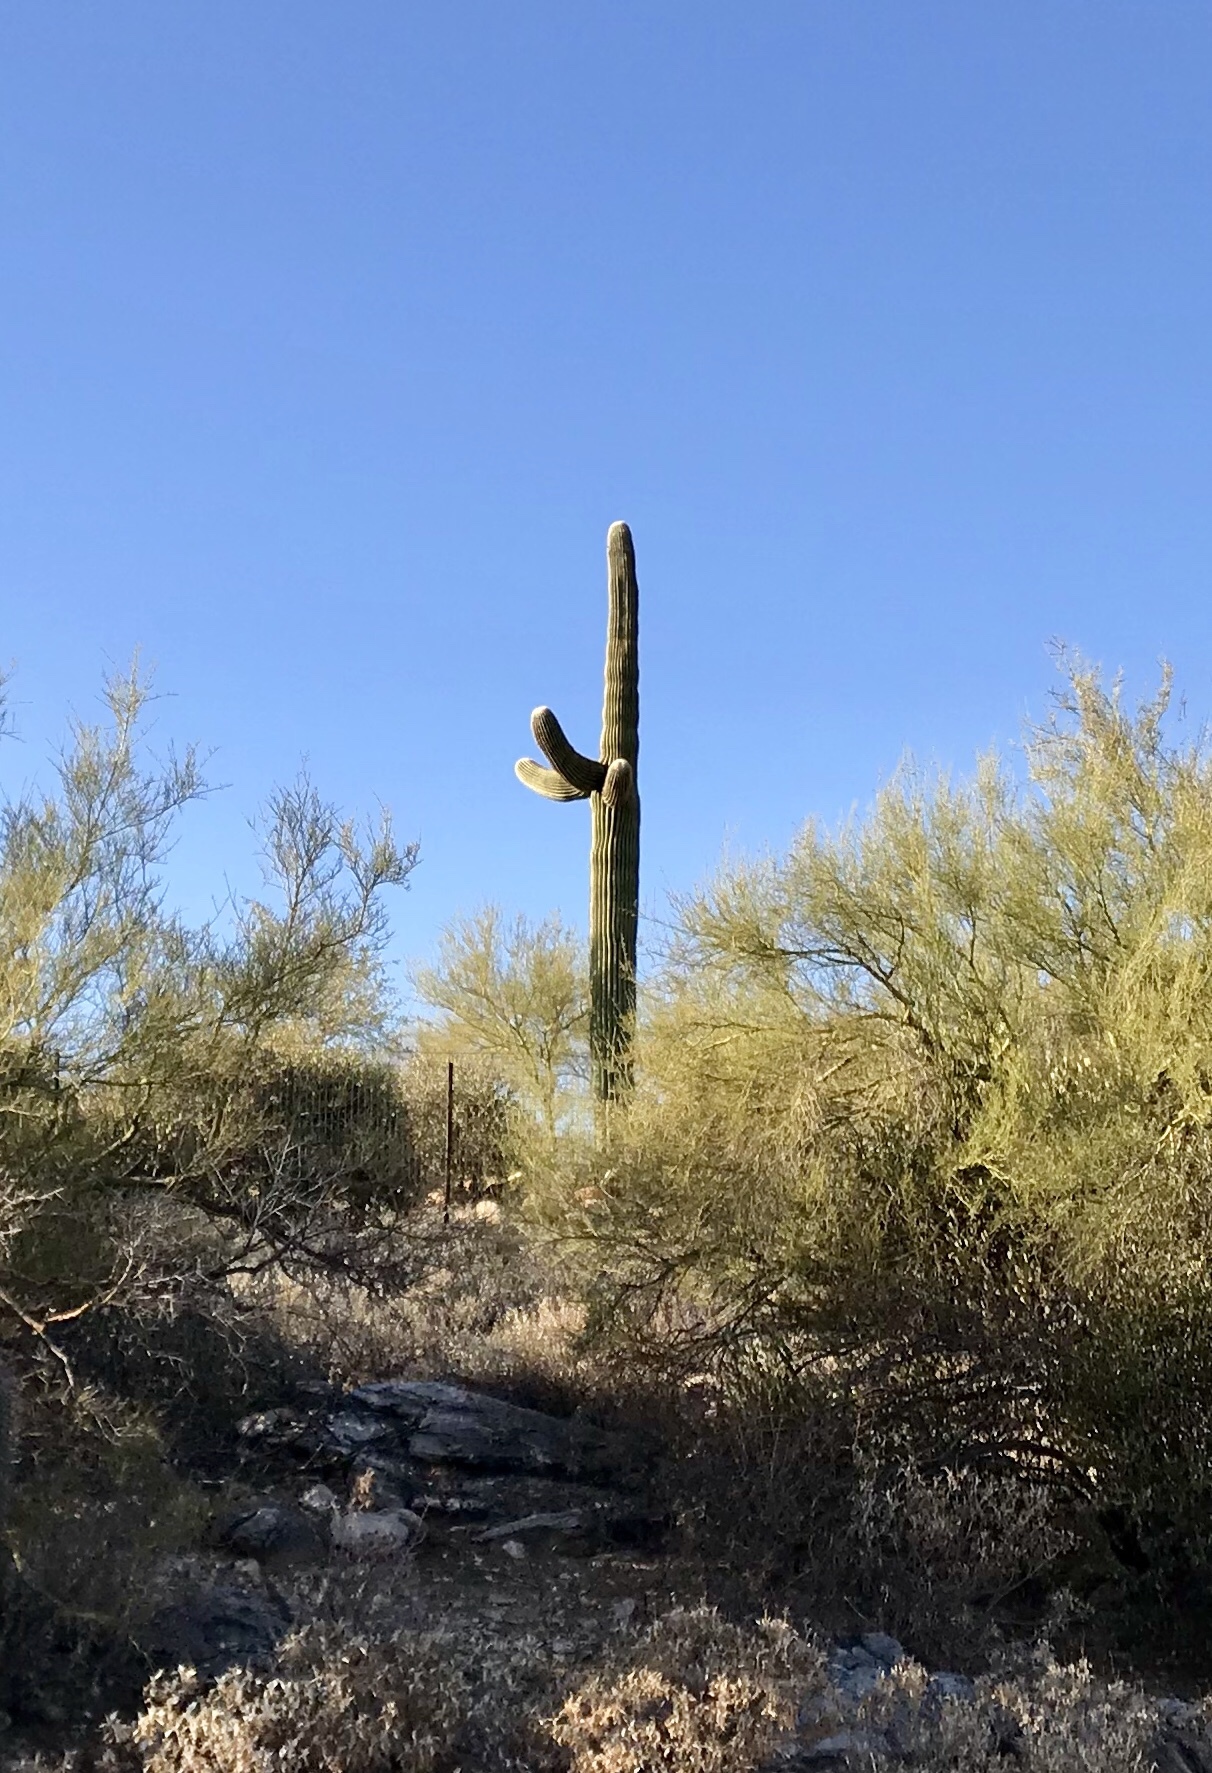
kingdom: Plantae
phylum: Tracheophyta
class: Magnoliopsida
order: Caryophyllales
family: Cactaceae
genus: Carnegiea
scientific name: Carnegiea gigantea
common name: Saguaro
